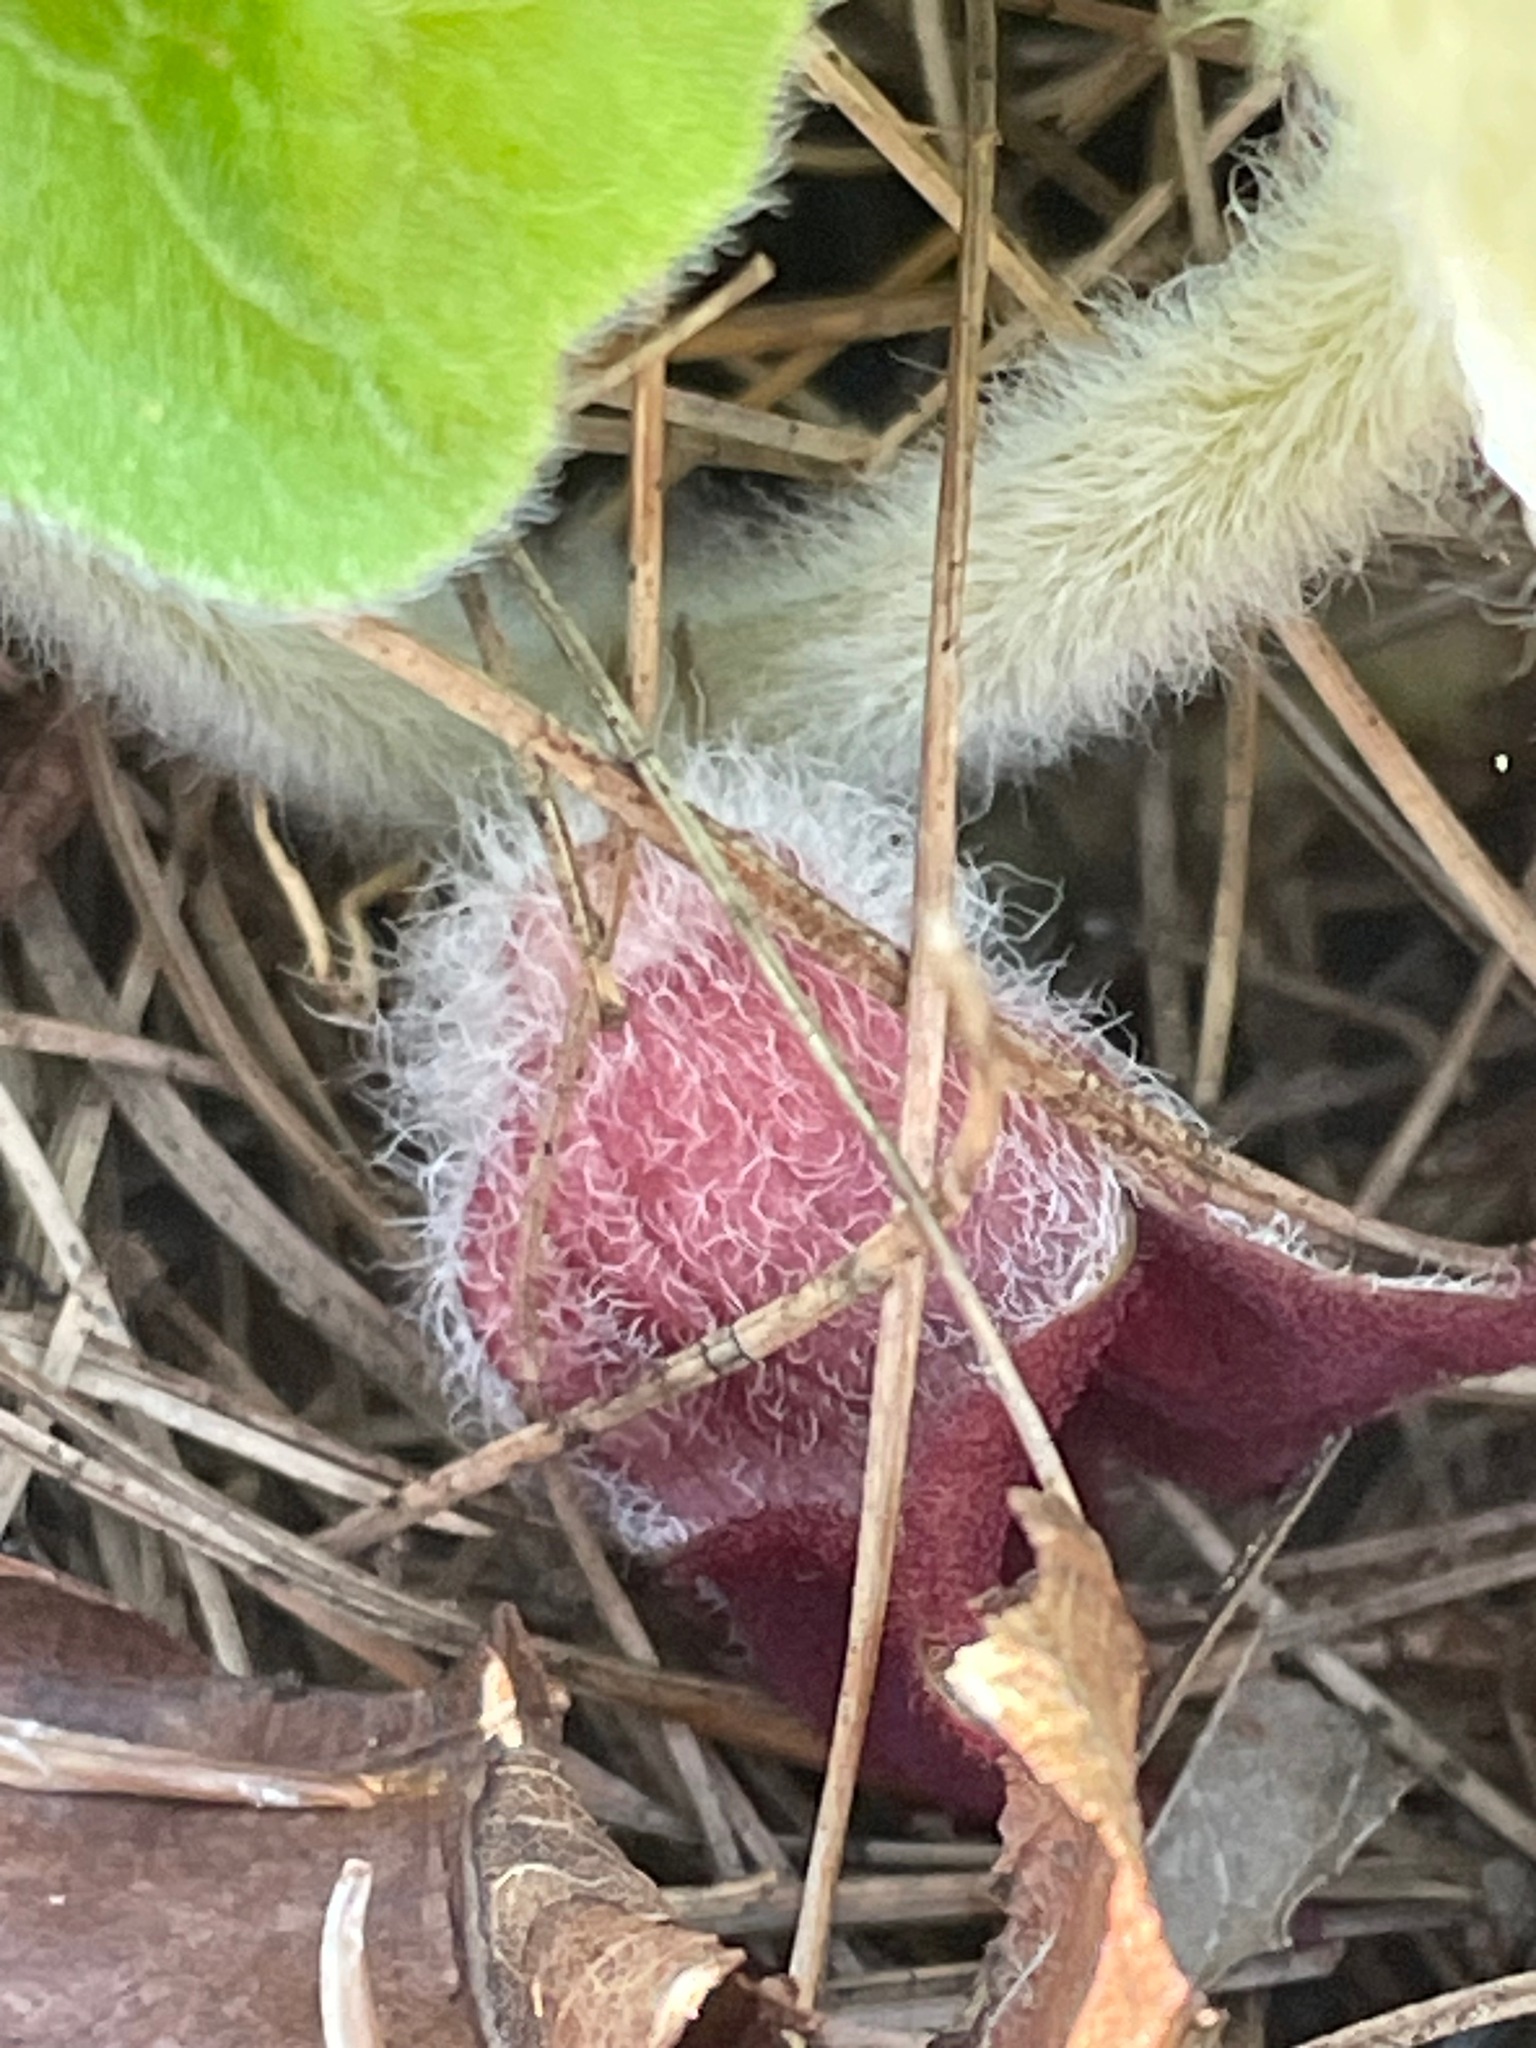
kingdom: Plantae
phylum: Tracheophyta
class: Magnoliopsida
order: Piperales
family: Aristolochiaceae
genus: Asarum
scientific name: Asarum canadense
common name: Wild ginger
